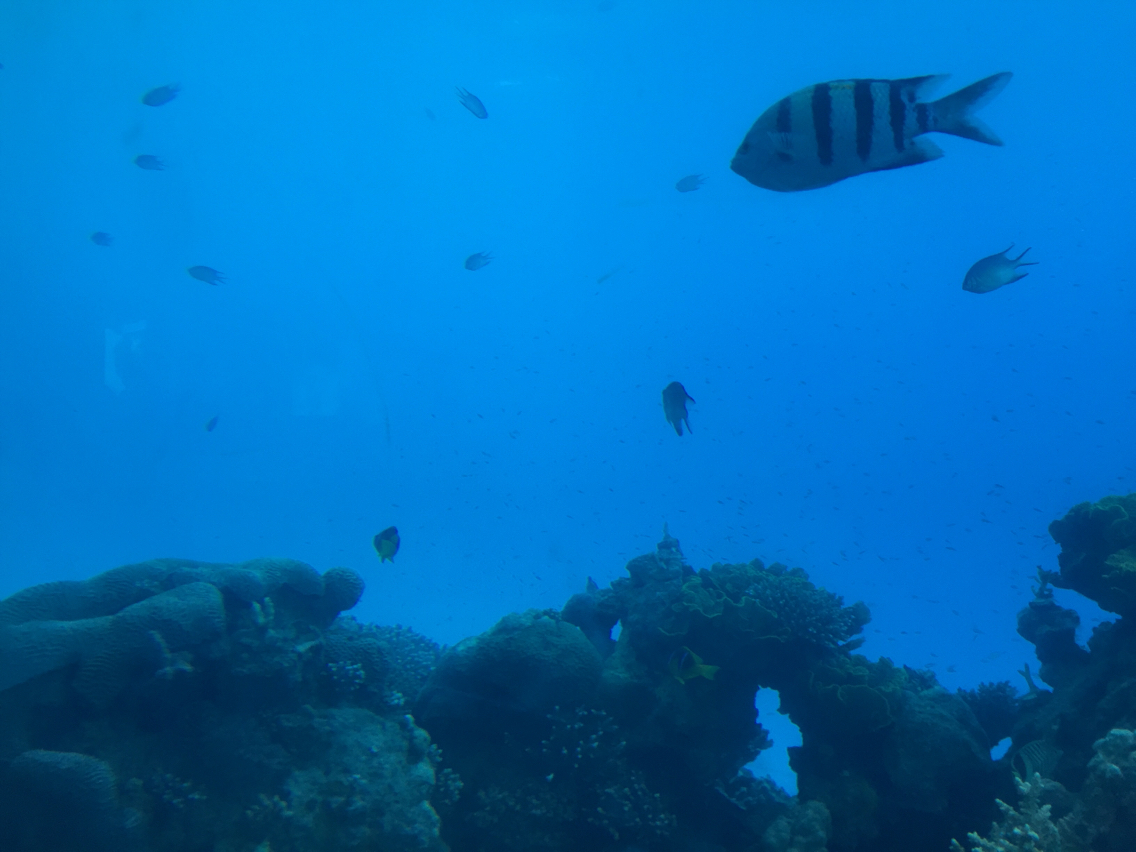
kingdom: Animalia
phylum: Chordata
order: Perciformes
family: Pomacentridae
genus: Abudefduf
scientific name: Abudefduf vaigiensis
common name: Indo-pacific sergeant
